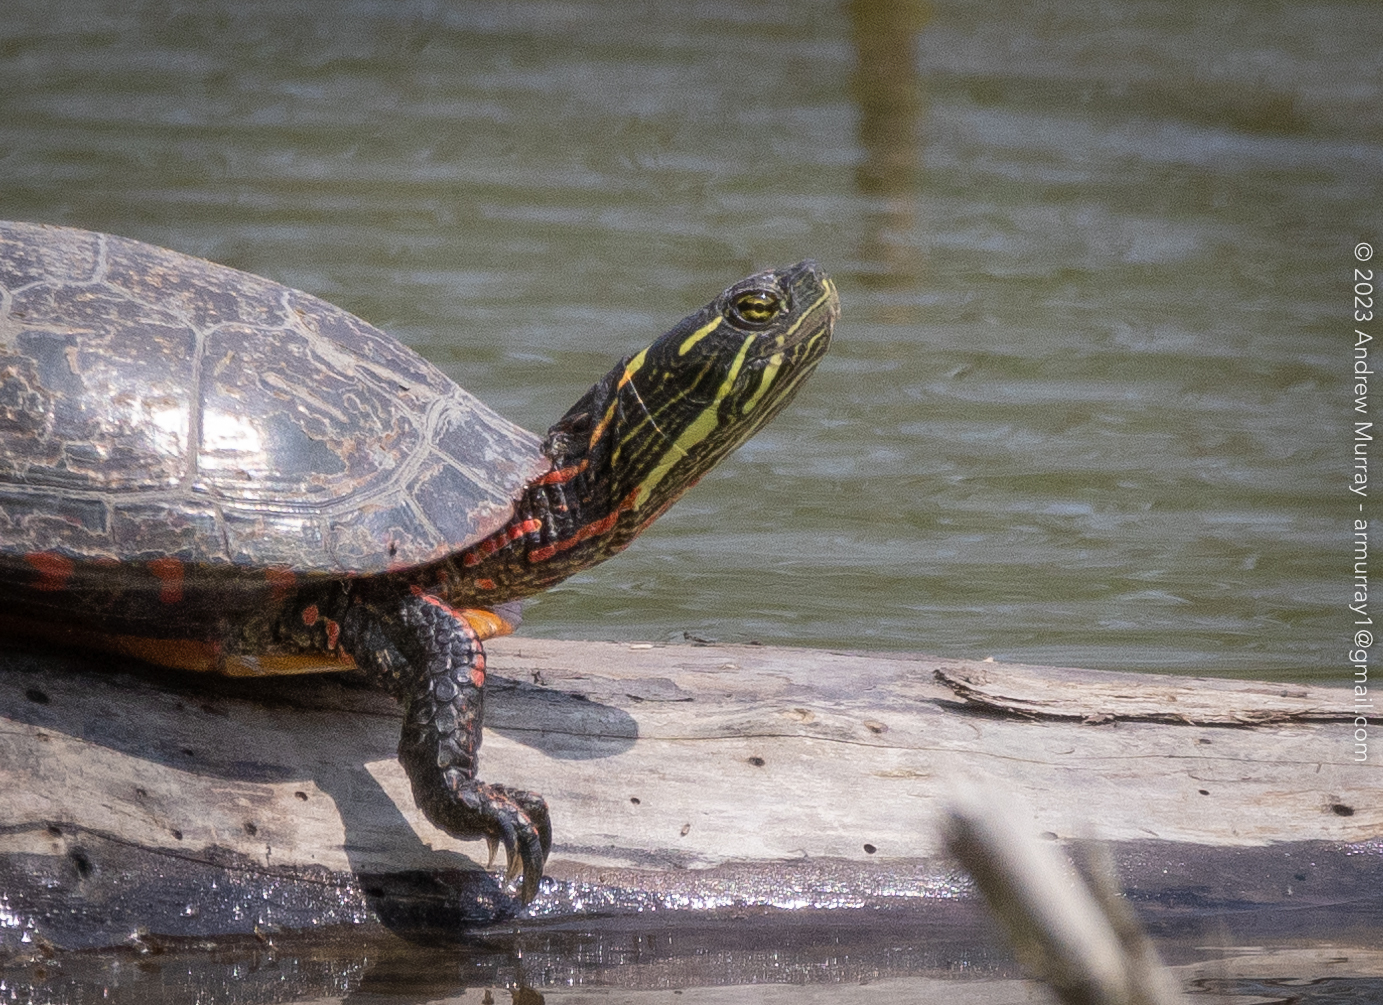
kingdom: Animalia
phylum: Chordata
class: Testudines
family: Emydidae
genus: Chrysemys
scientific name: Chrysemys picta
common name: Painted turtle
